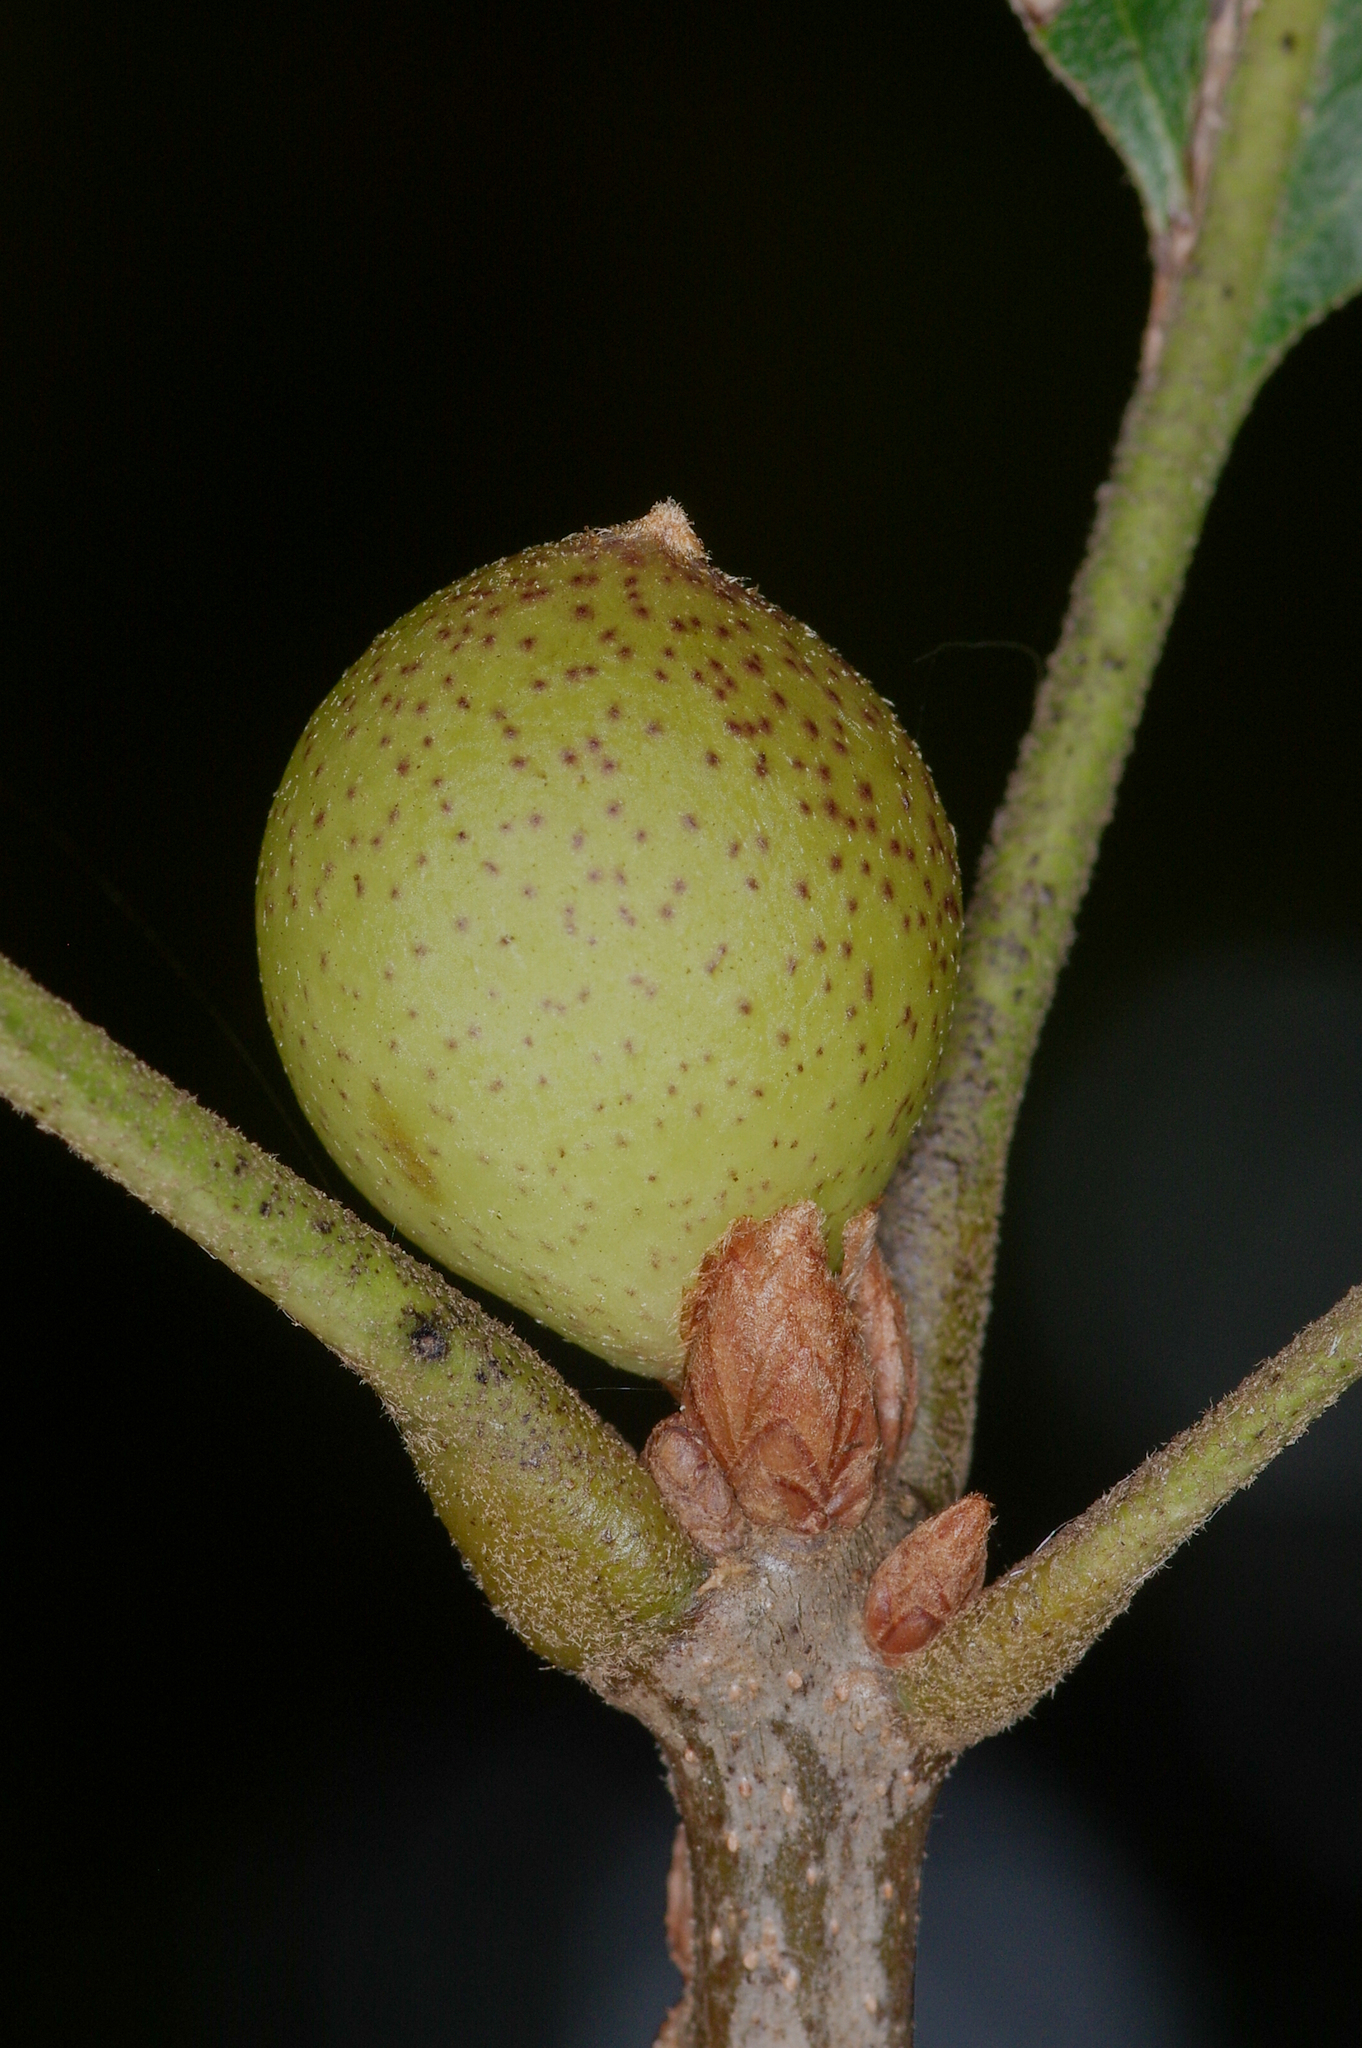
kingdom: Animalia
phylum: Arthropoda
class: Insecta
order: Hymenoptera
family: Cynipidae
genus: Amphibolips
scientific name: Amphibolips
